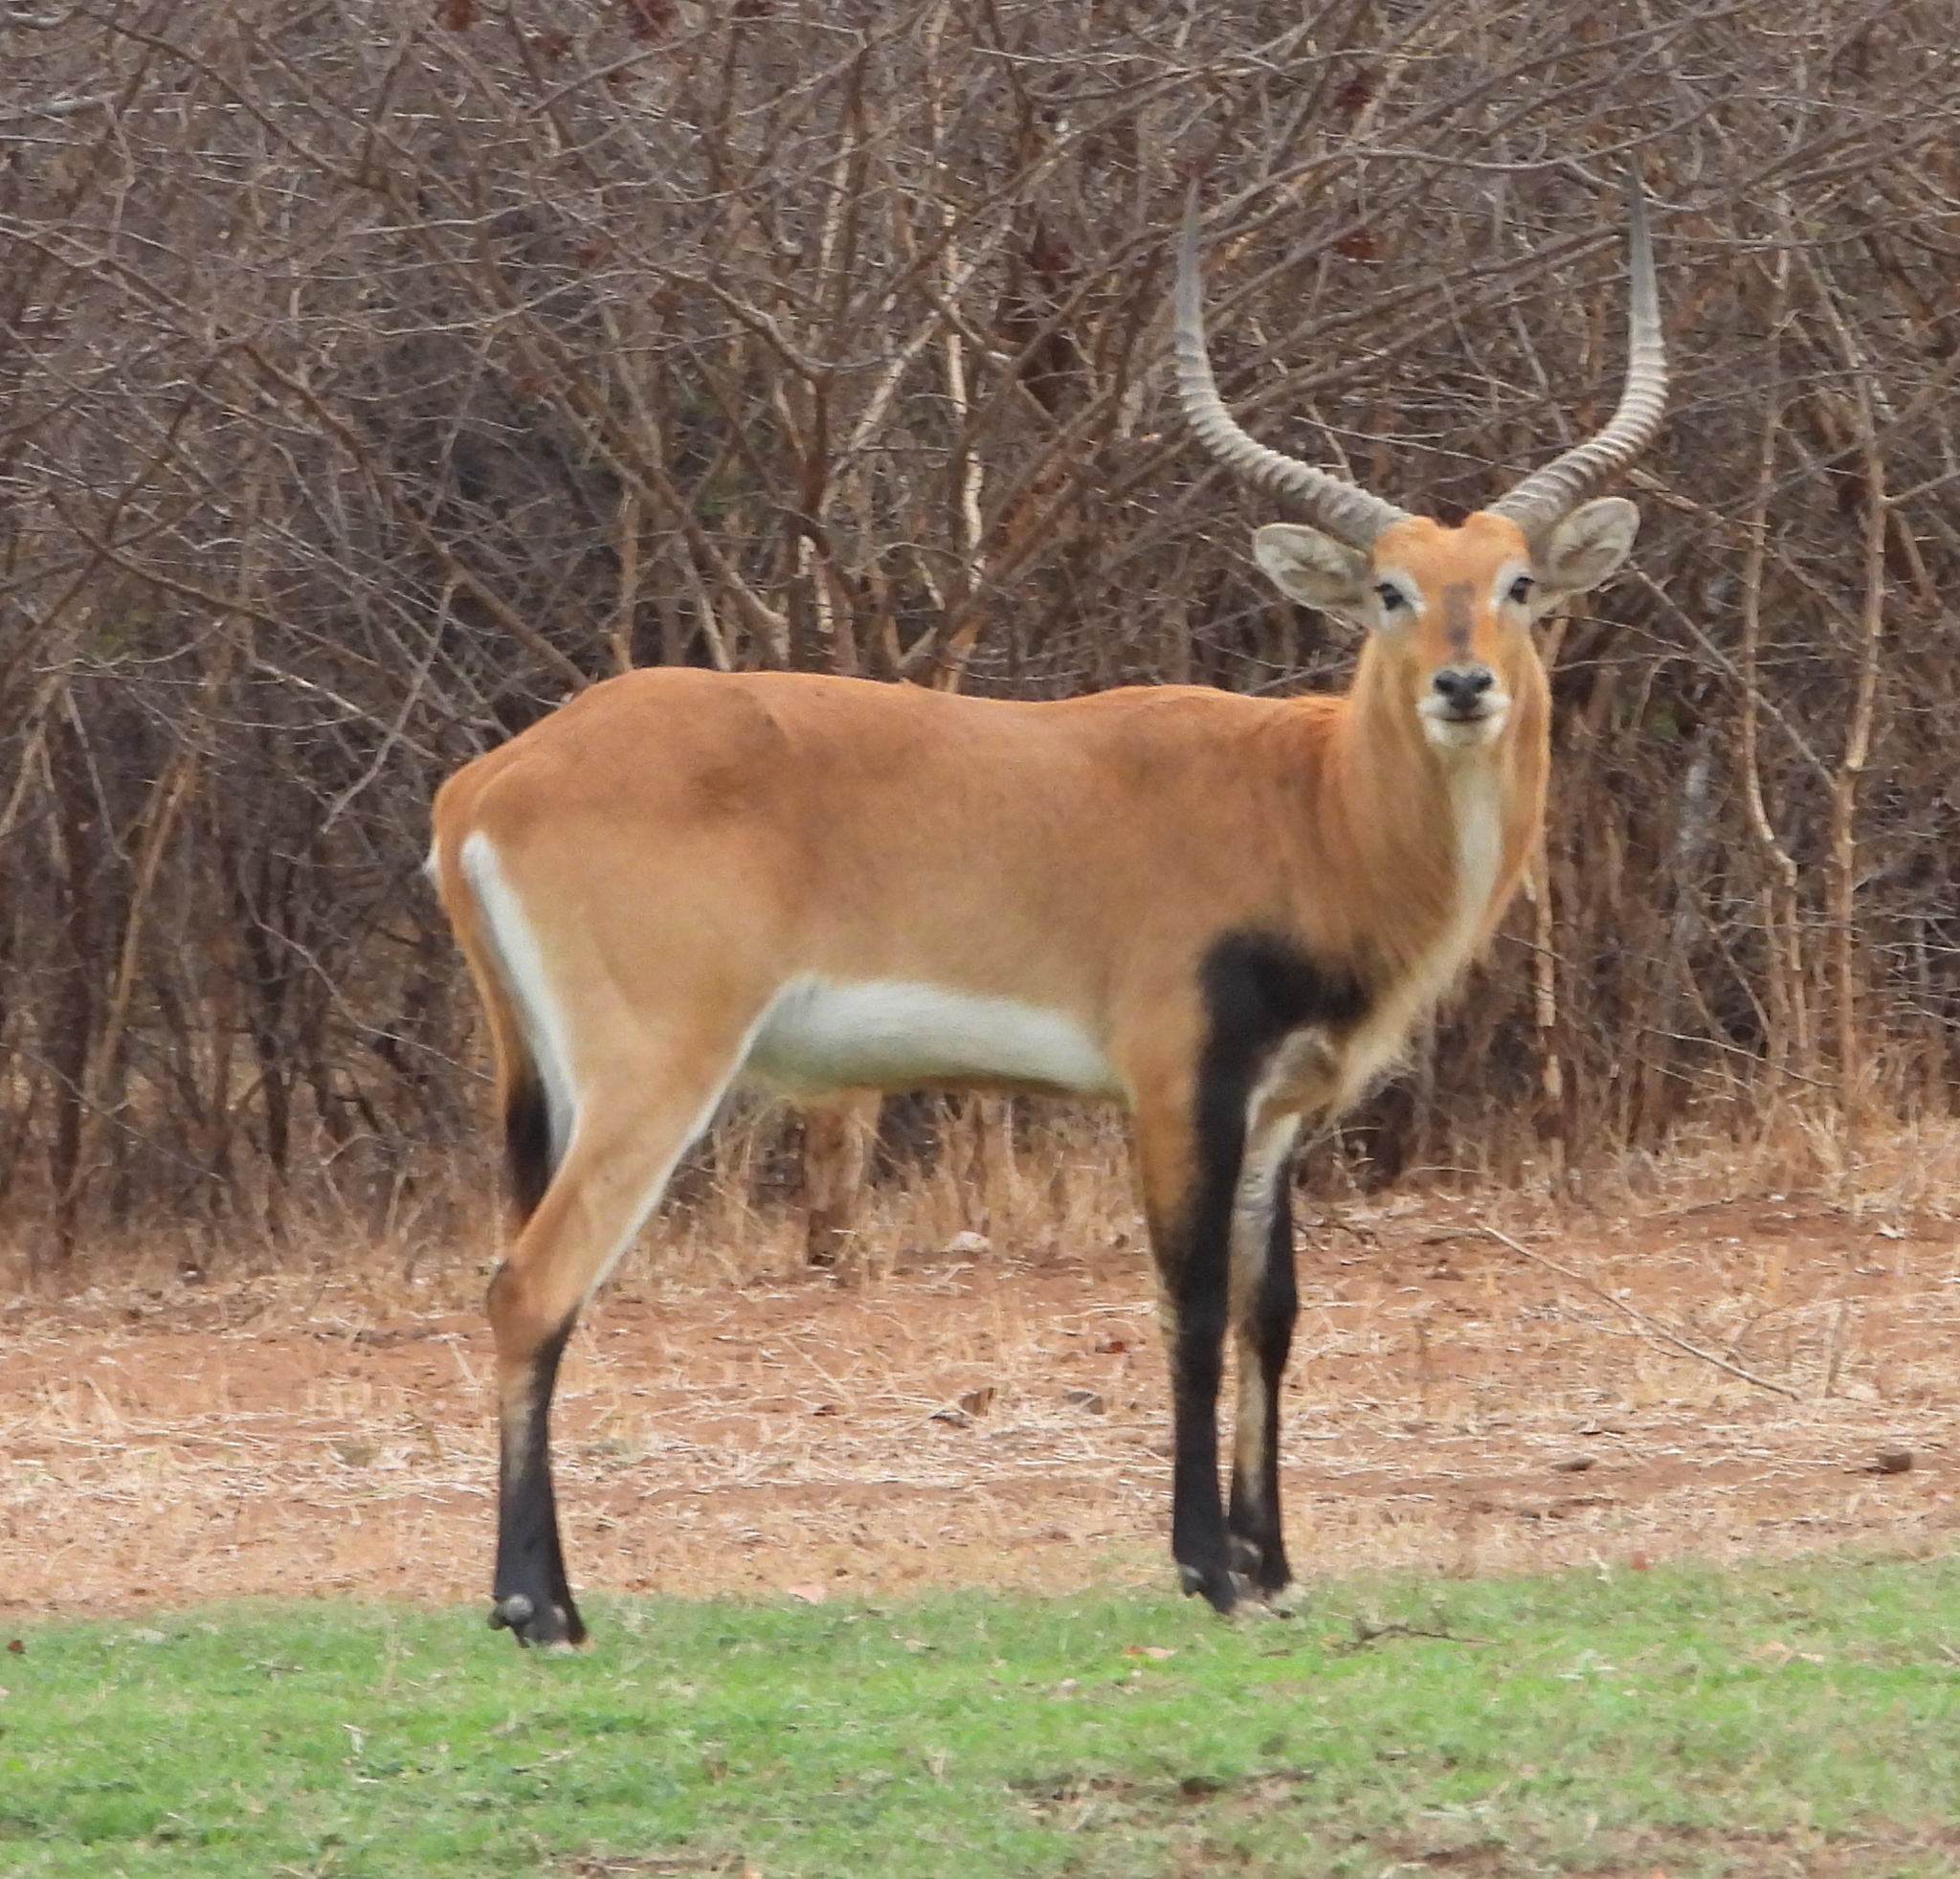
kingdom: Animalia
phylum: Chordata
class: Mammalia
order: Artiodactyla
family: Bovidae
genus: Kobus
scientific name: Kobus leche
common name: Lechwe
